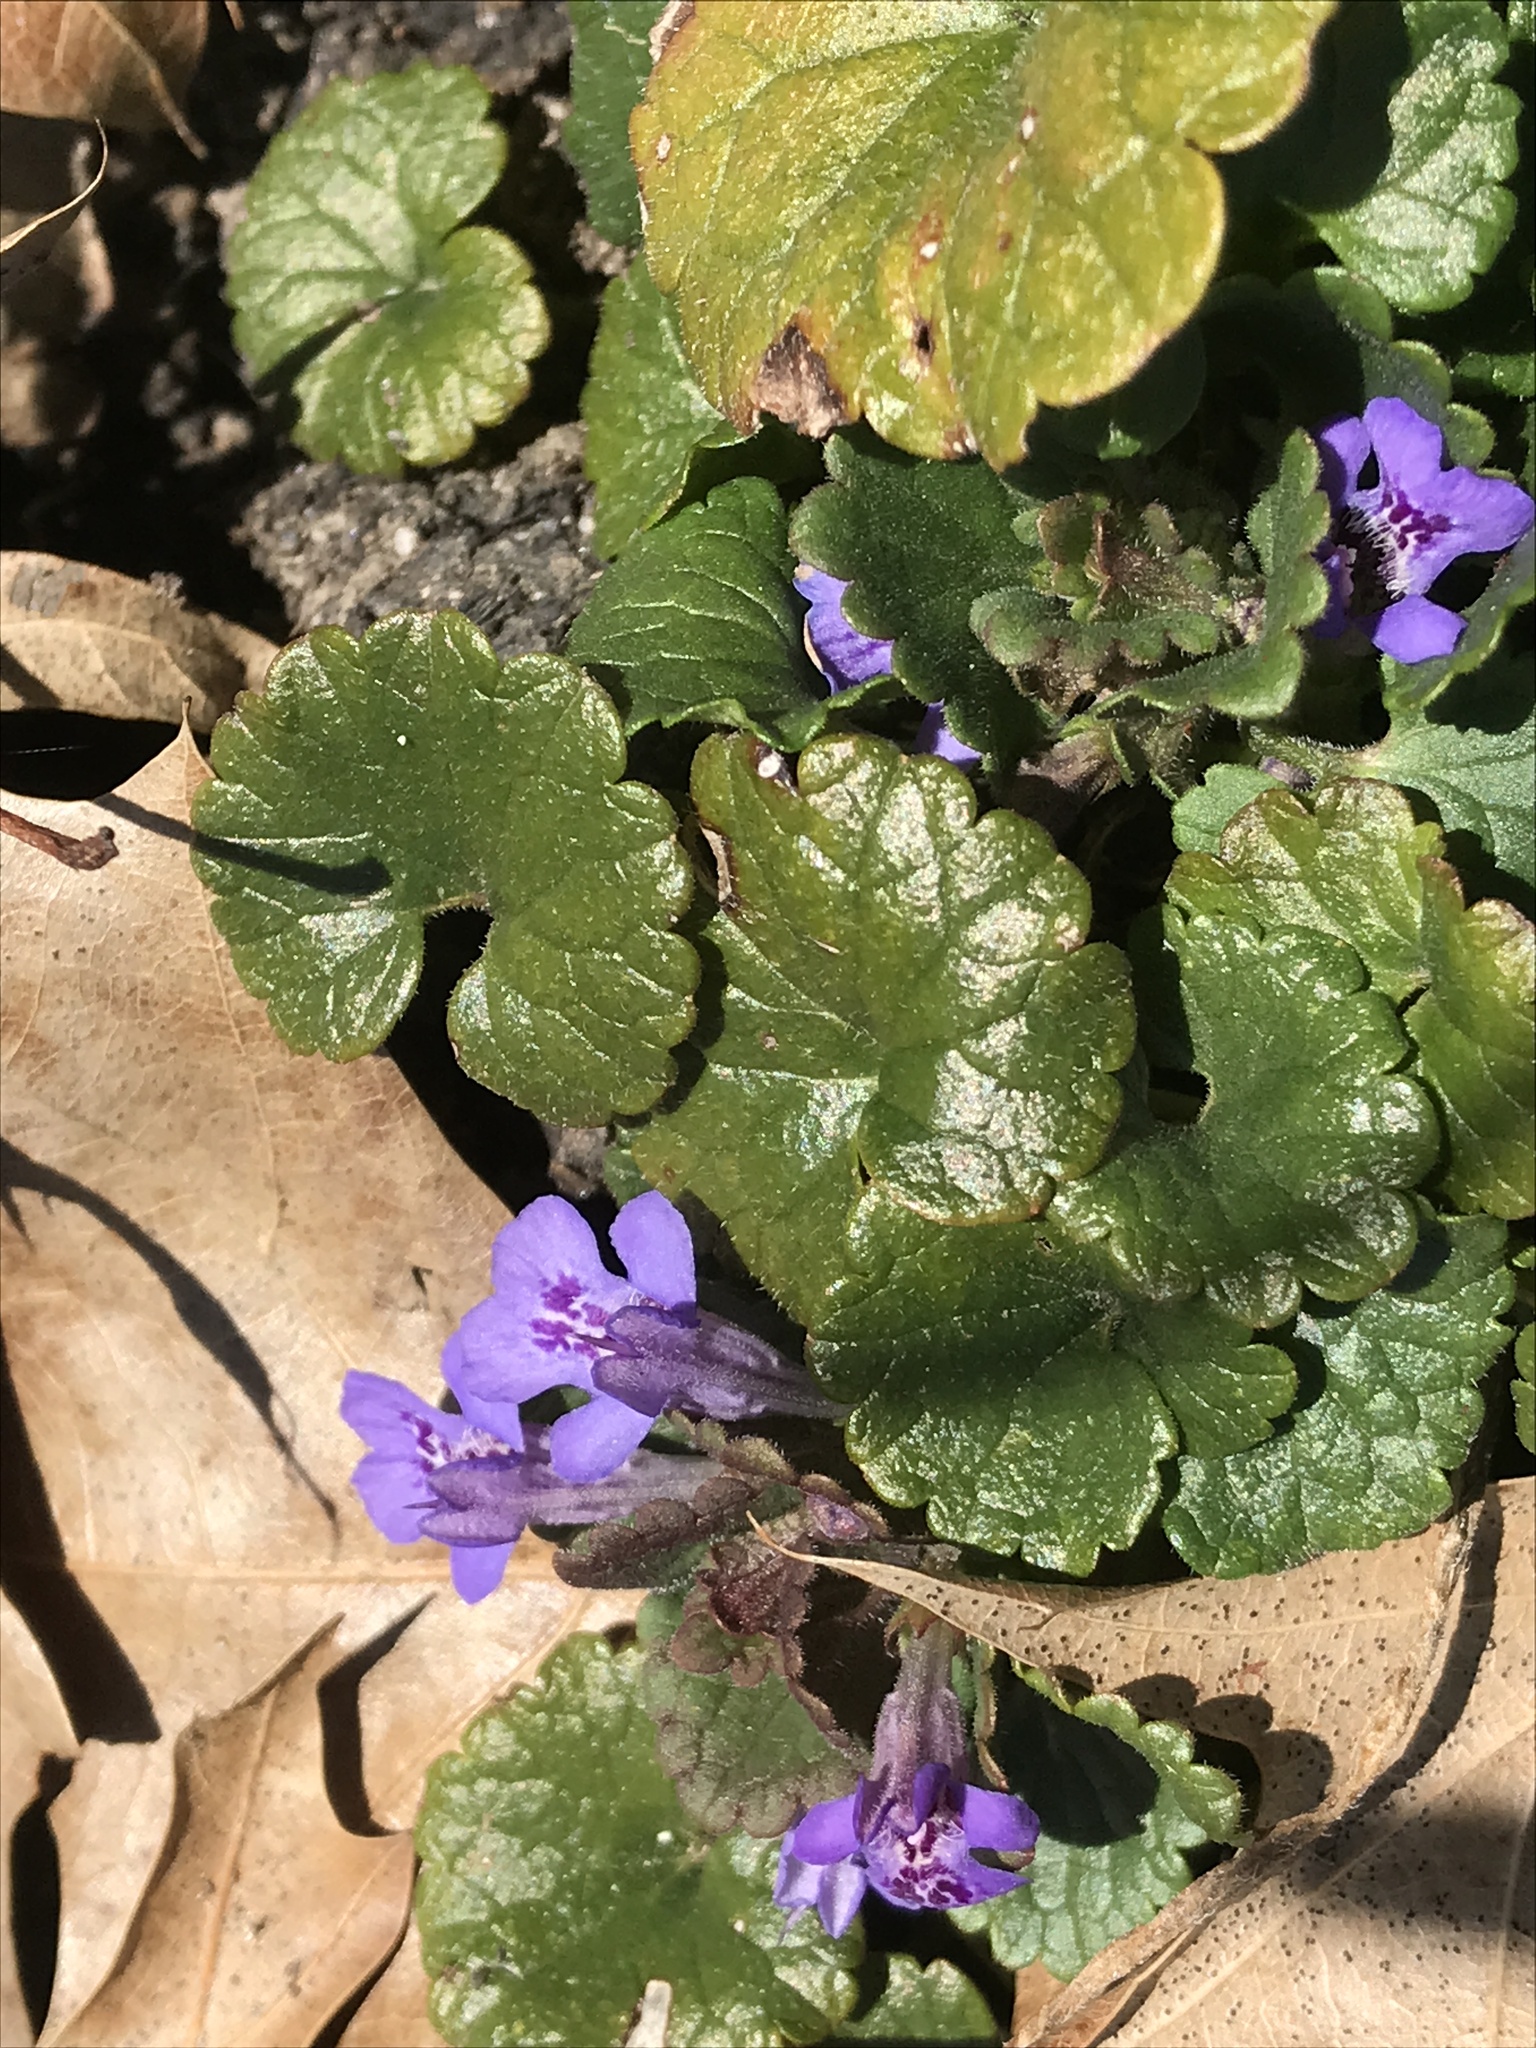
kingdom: Plantae
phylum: Tracheophyta
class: Magnoliopsida
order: Lamiales
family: Lamiaceae
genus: Glechoma
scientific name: Glechoma hederacea
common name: Ground ivy
